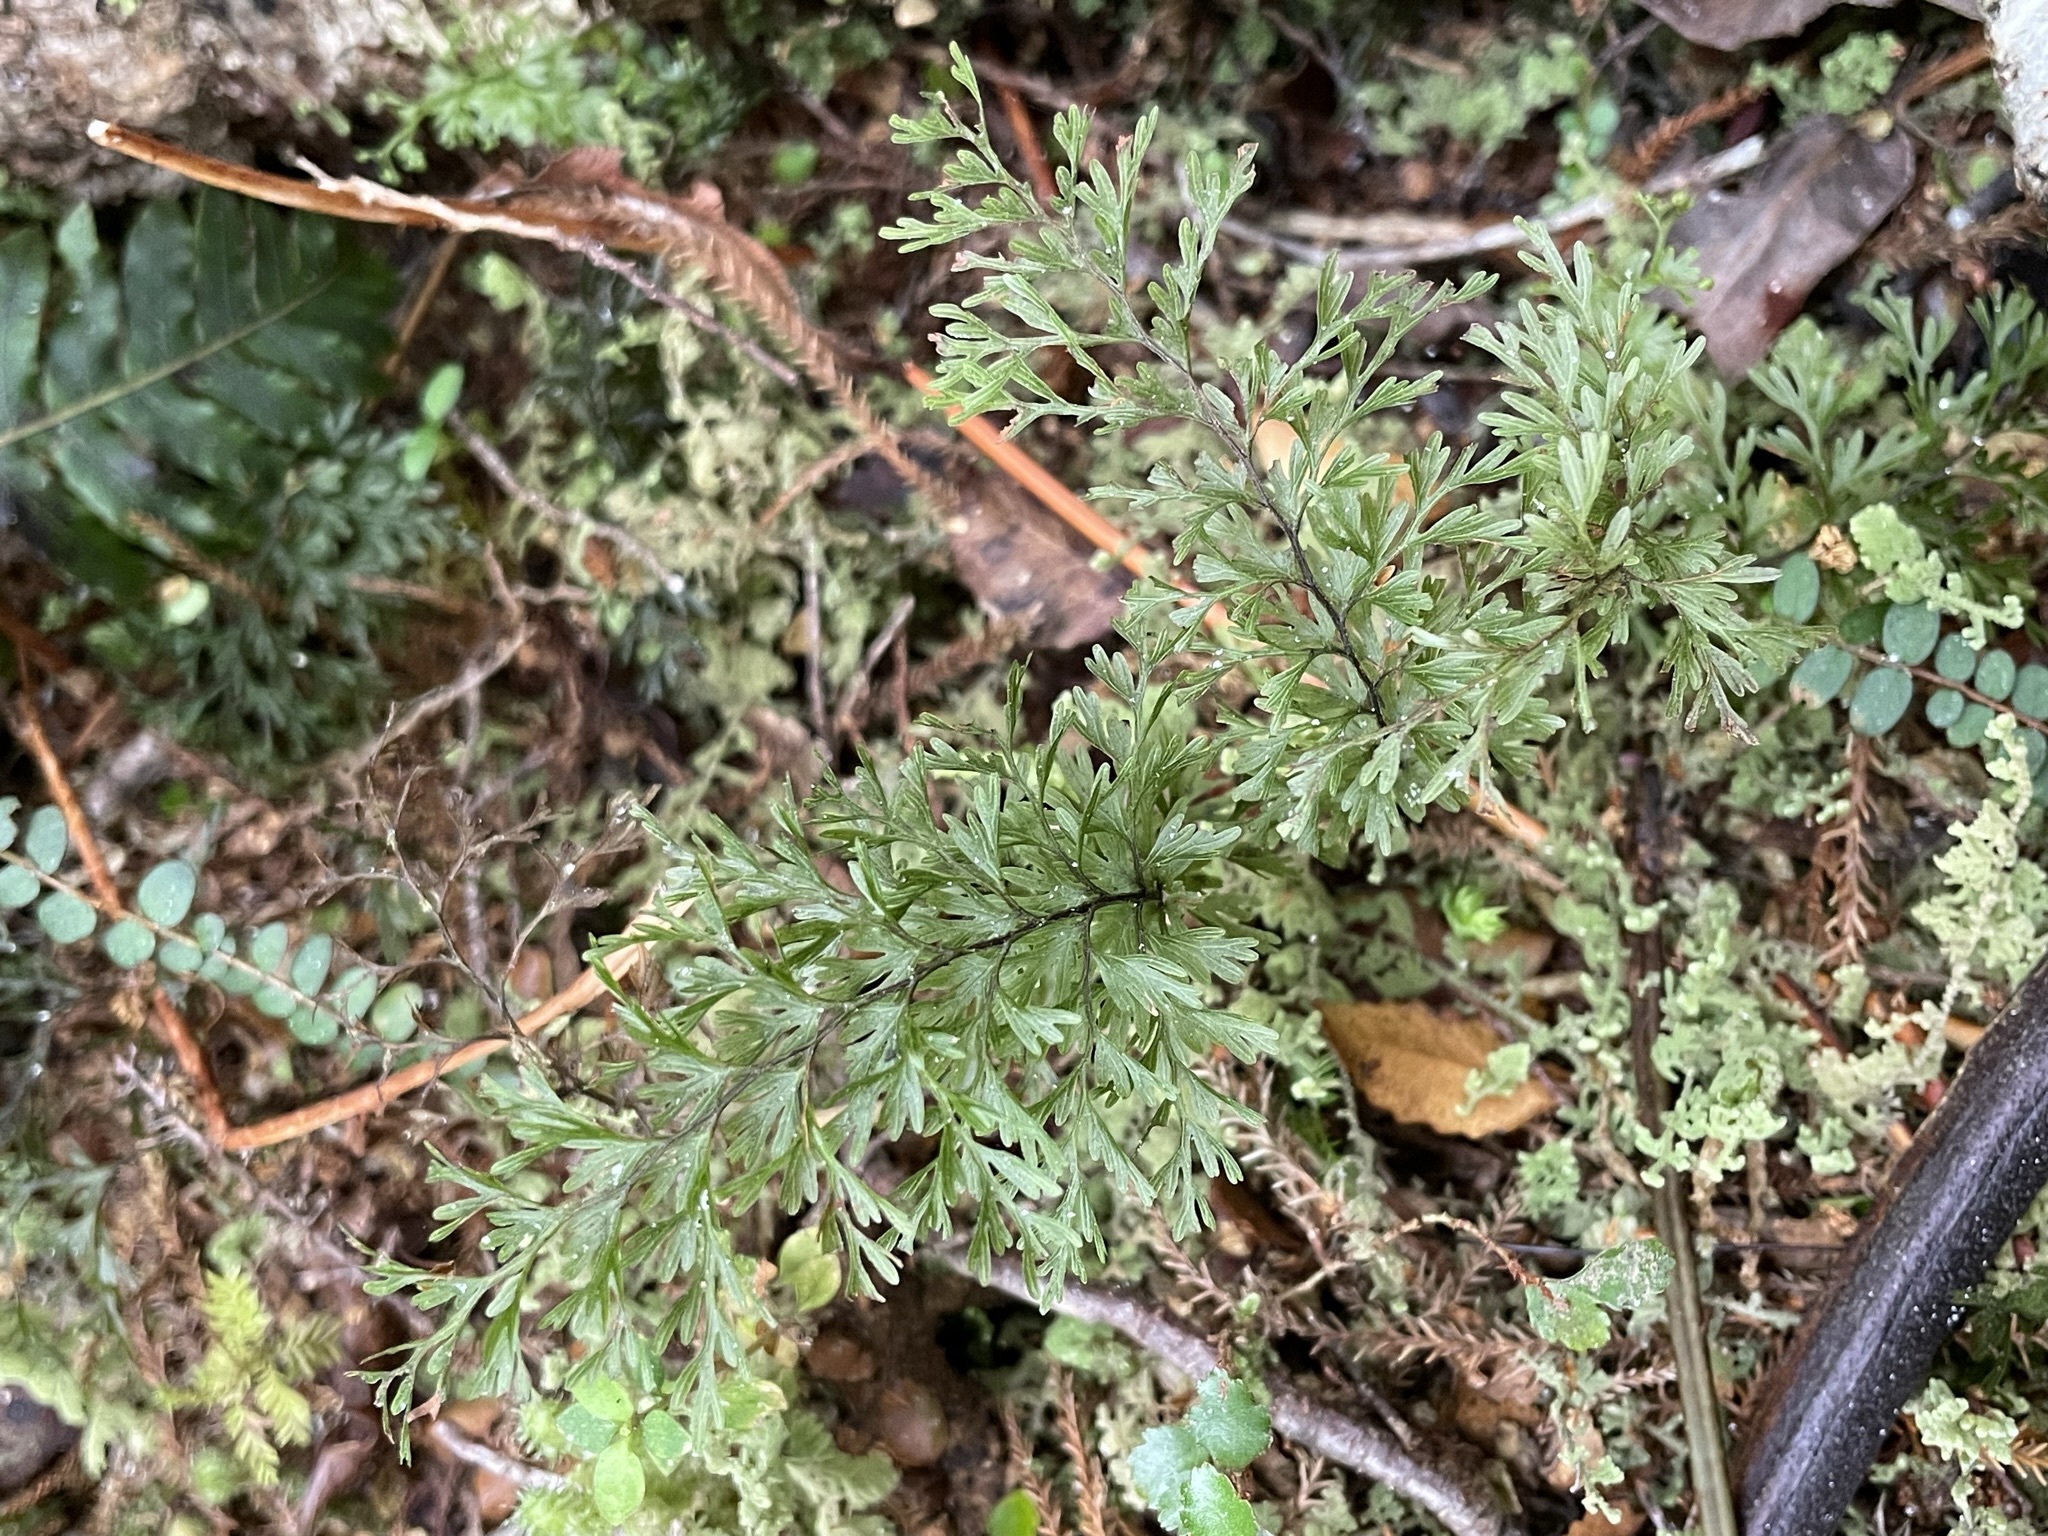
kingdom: Plantae
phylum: Tracheophyta
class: Polypodiopsida
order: Hymenophyllales
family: Hymenophyllaceae
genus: Hymenophyllum
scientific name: Hymenophyllum demissum
